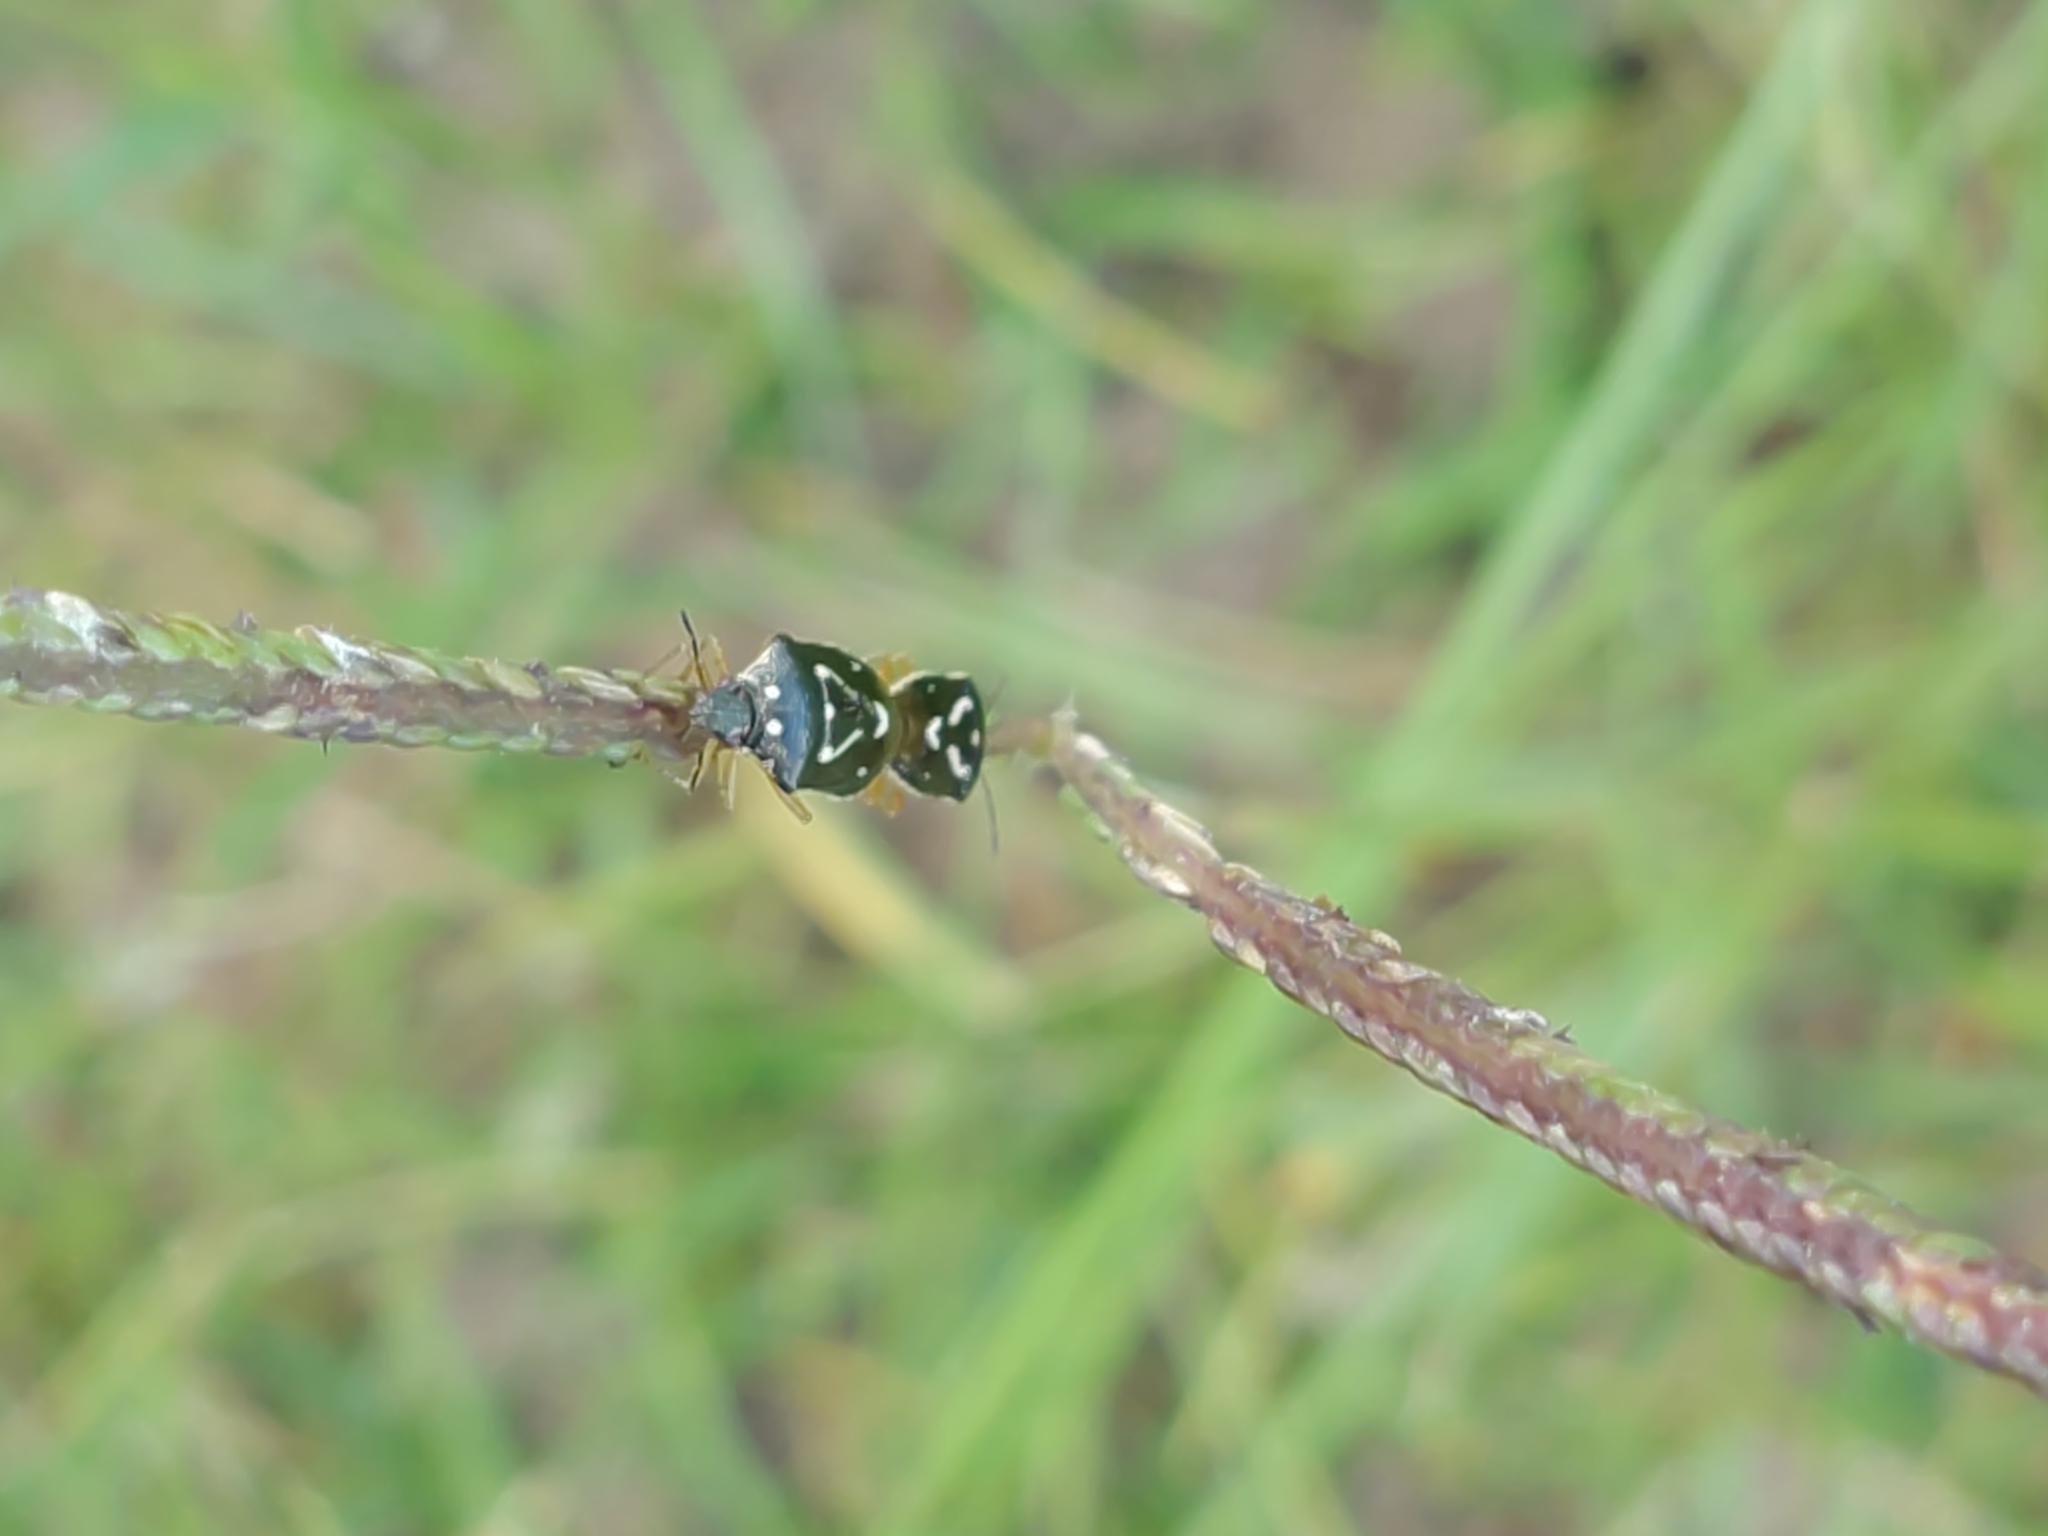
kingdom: Animalia
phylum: Arthropoda
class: Insecta
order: Hemiptera
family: Pentatomidae
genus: Mormidea
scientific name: Mormidea pama
